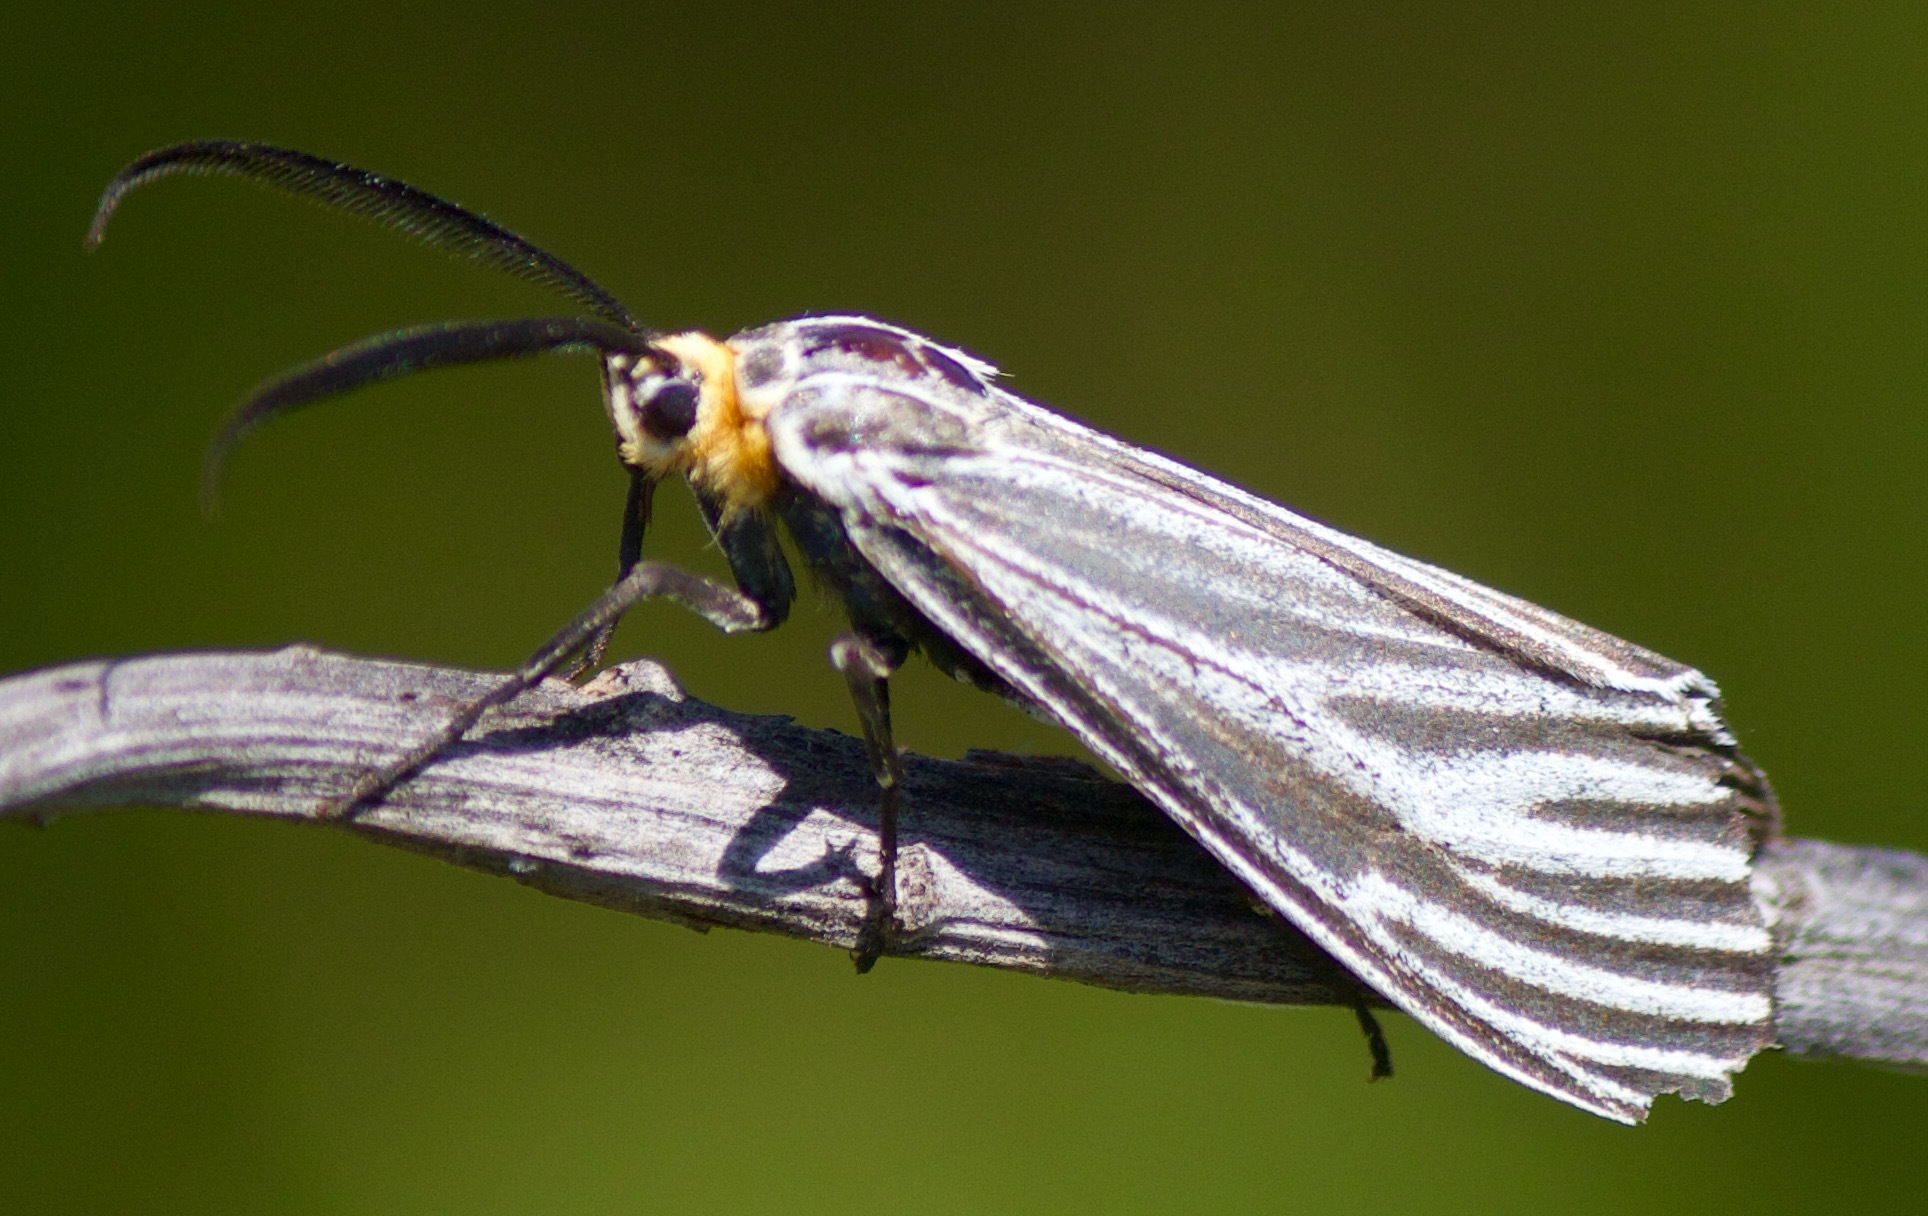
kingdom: Animalia
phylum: Arthropoda
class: Insecta
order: Lepidoptera
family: Erebidae
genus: Ctenucha
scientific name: Ctenucha vittigerum
